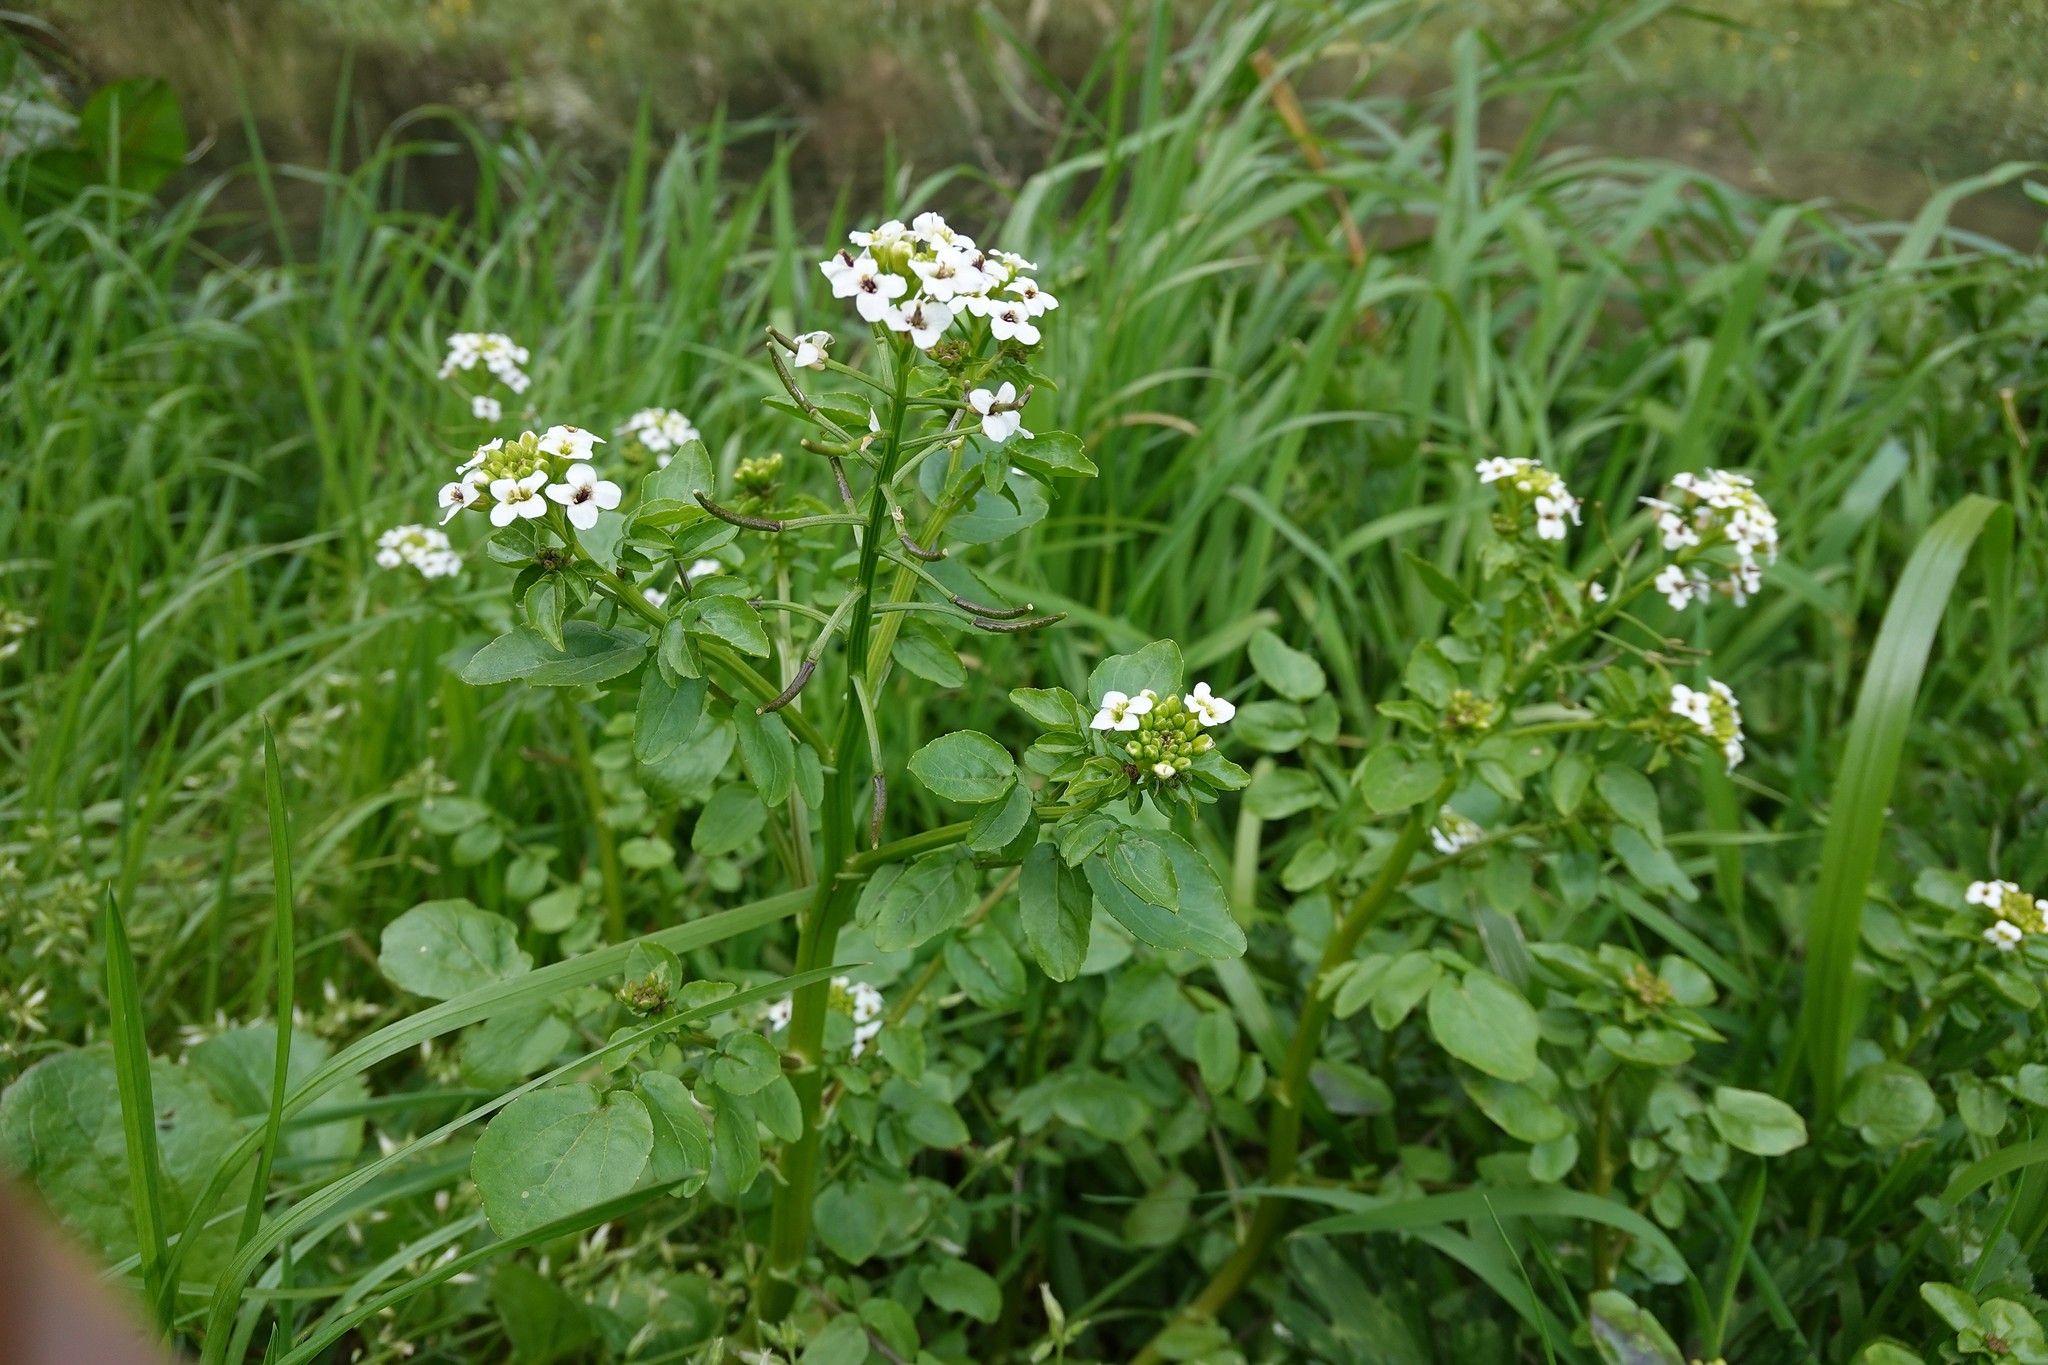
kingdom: Plantae
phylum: Tracheophyta
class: Magnoliopsida
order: Brassicales
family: Brassicaceae
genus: Nasturtium
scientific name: Nasturtium officinale
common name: Watercress
